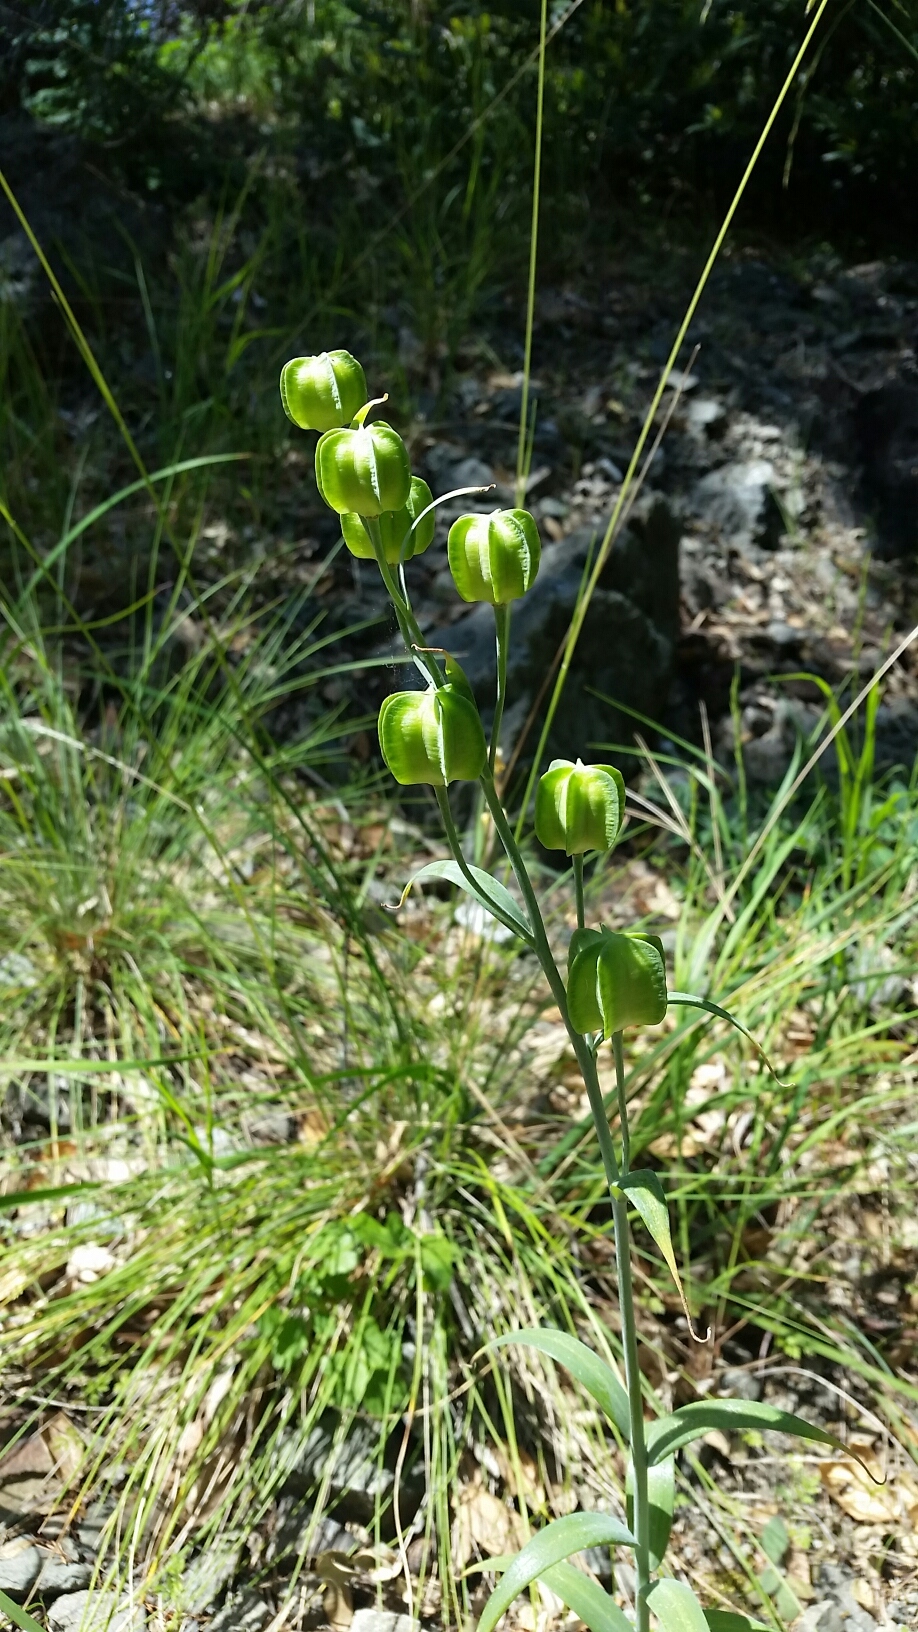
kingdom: Plantae
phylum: Tracheophyta
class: Liliopsida
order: Liliales
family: Liliaceae
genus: Fritillaria
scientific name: Fritillaria affinis
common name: Ojai fritillary
